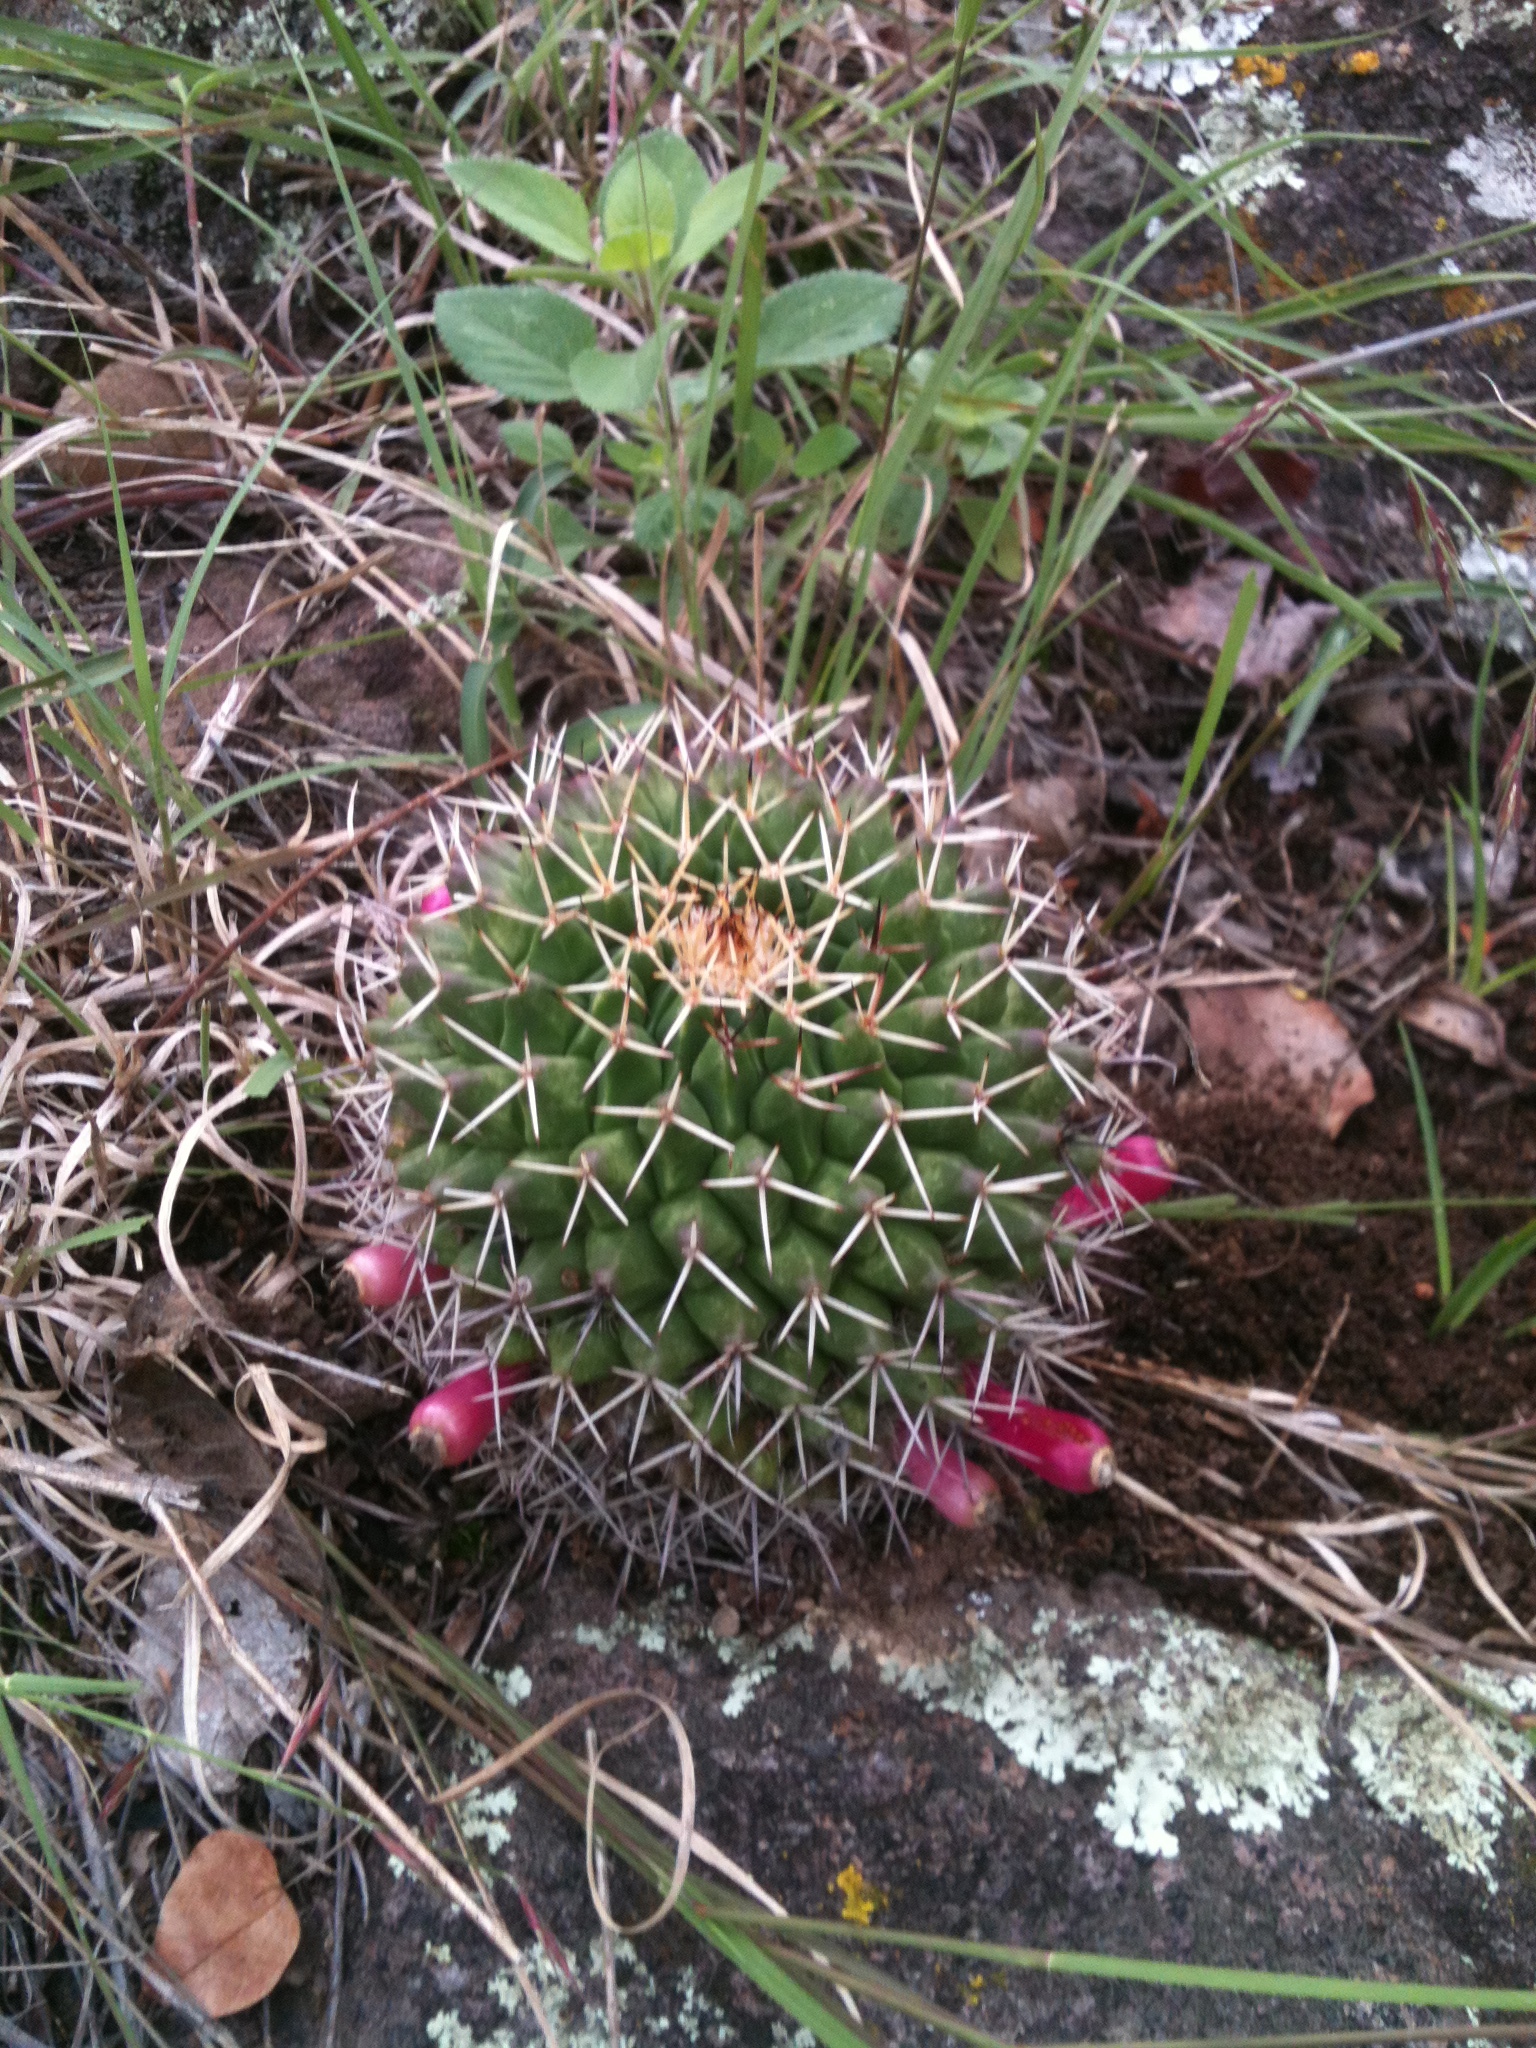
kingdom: Plantae
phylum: Tracheophyta
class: Magnoliopsida
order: Caryophyllales
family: Cactaceae
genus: Mammillaria
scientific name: Mammillaria polyedra
